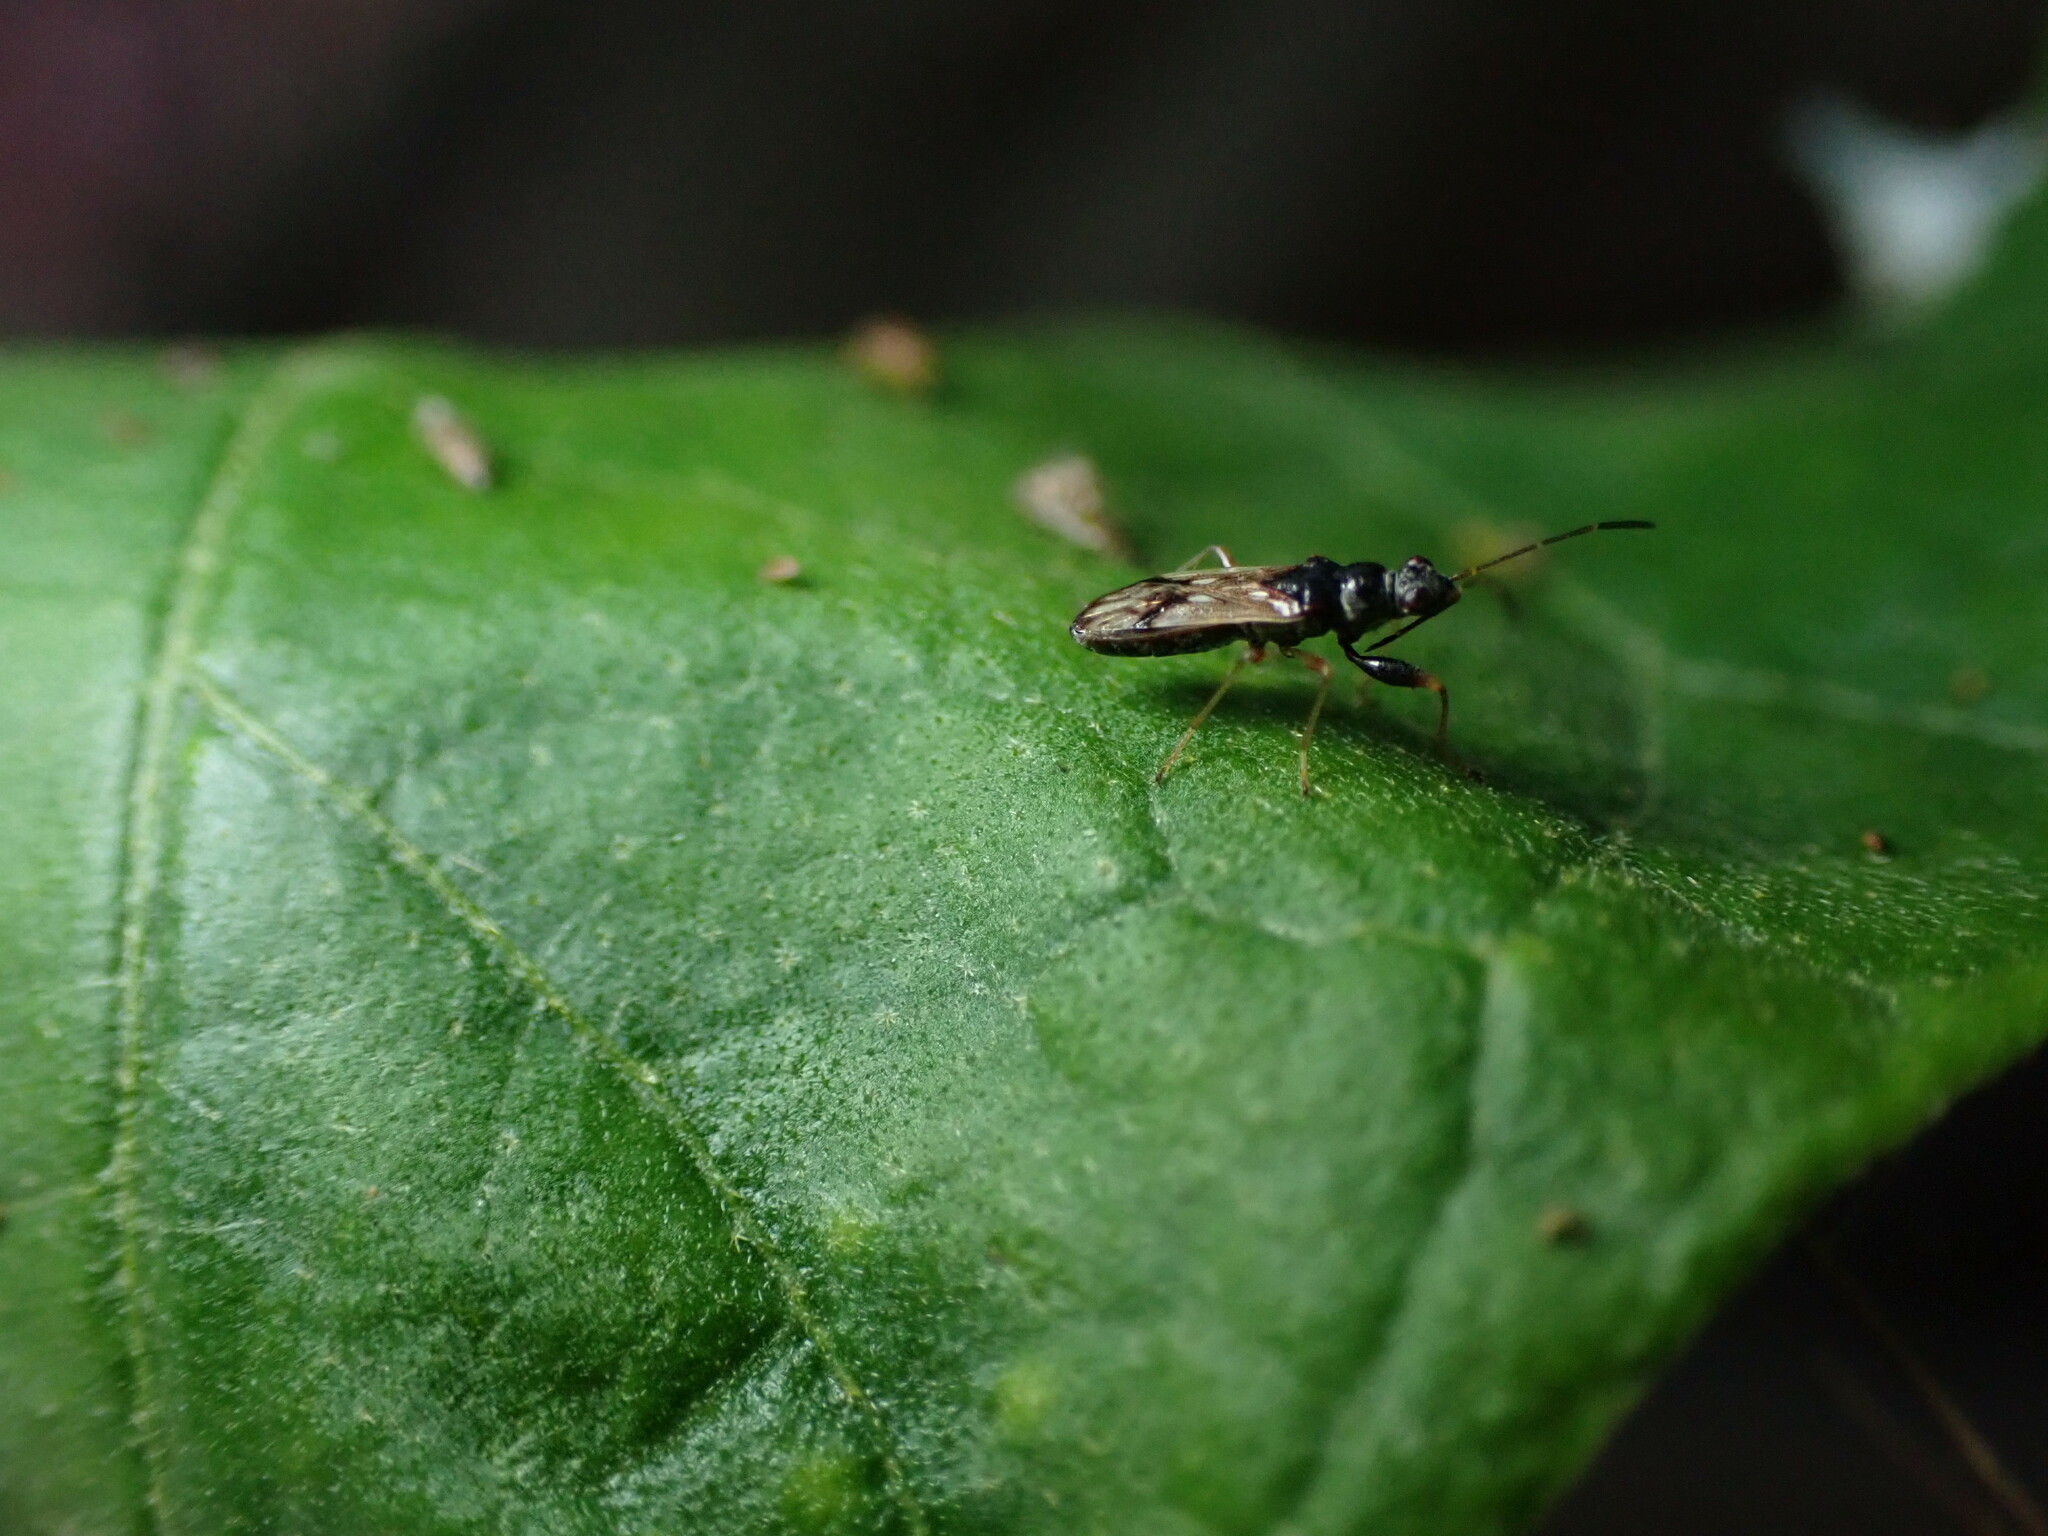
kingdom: Animalia
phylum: Arthropoda
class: Insecta
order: Hemiptera
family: Rhyparochromidae
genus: Pseudopachybrachius
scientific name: Pseudopachybrachius guttus
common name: Seed bug
